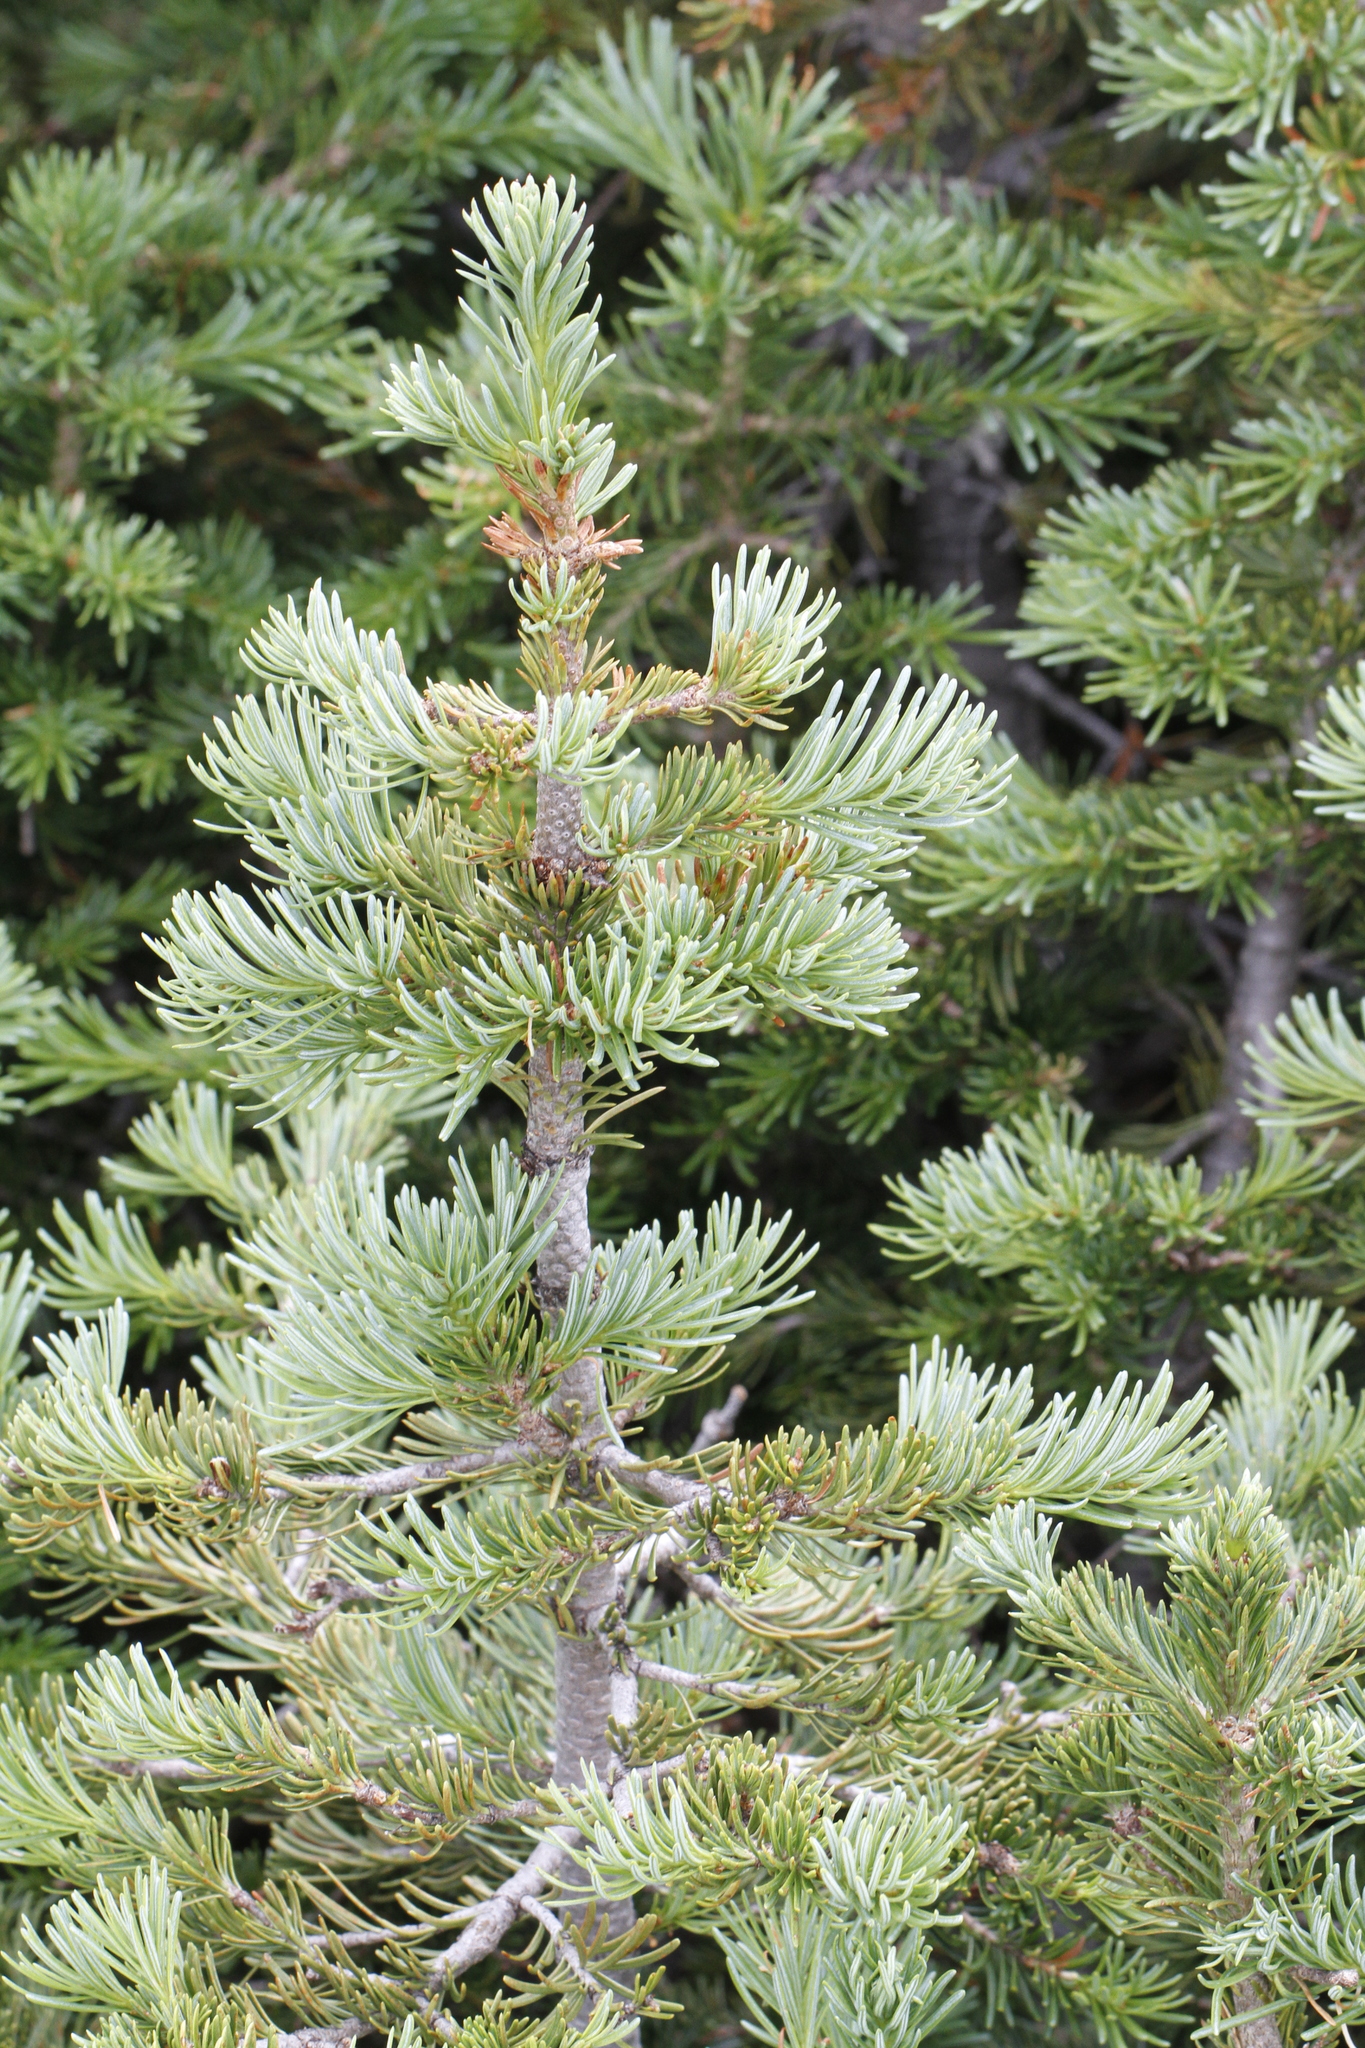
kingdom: Plantae
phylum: Tracheophyta
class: Pinopsida
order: Pinales
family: Pinaceae
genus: Abies
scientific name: Abies lasiocarpa
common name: Subalpine fir
